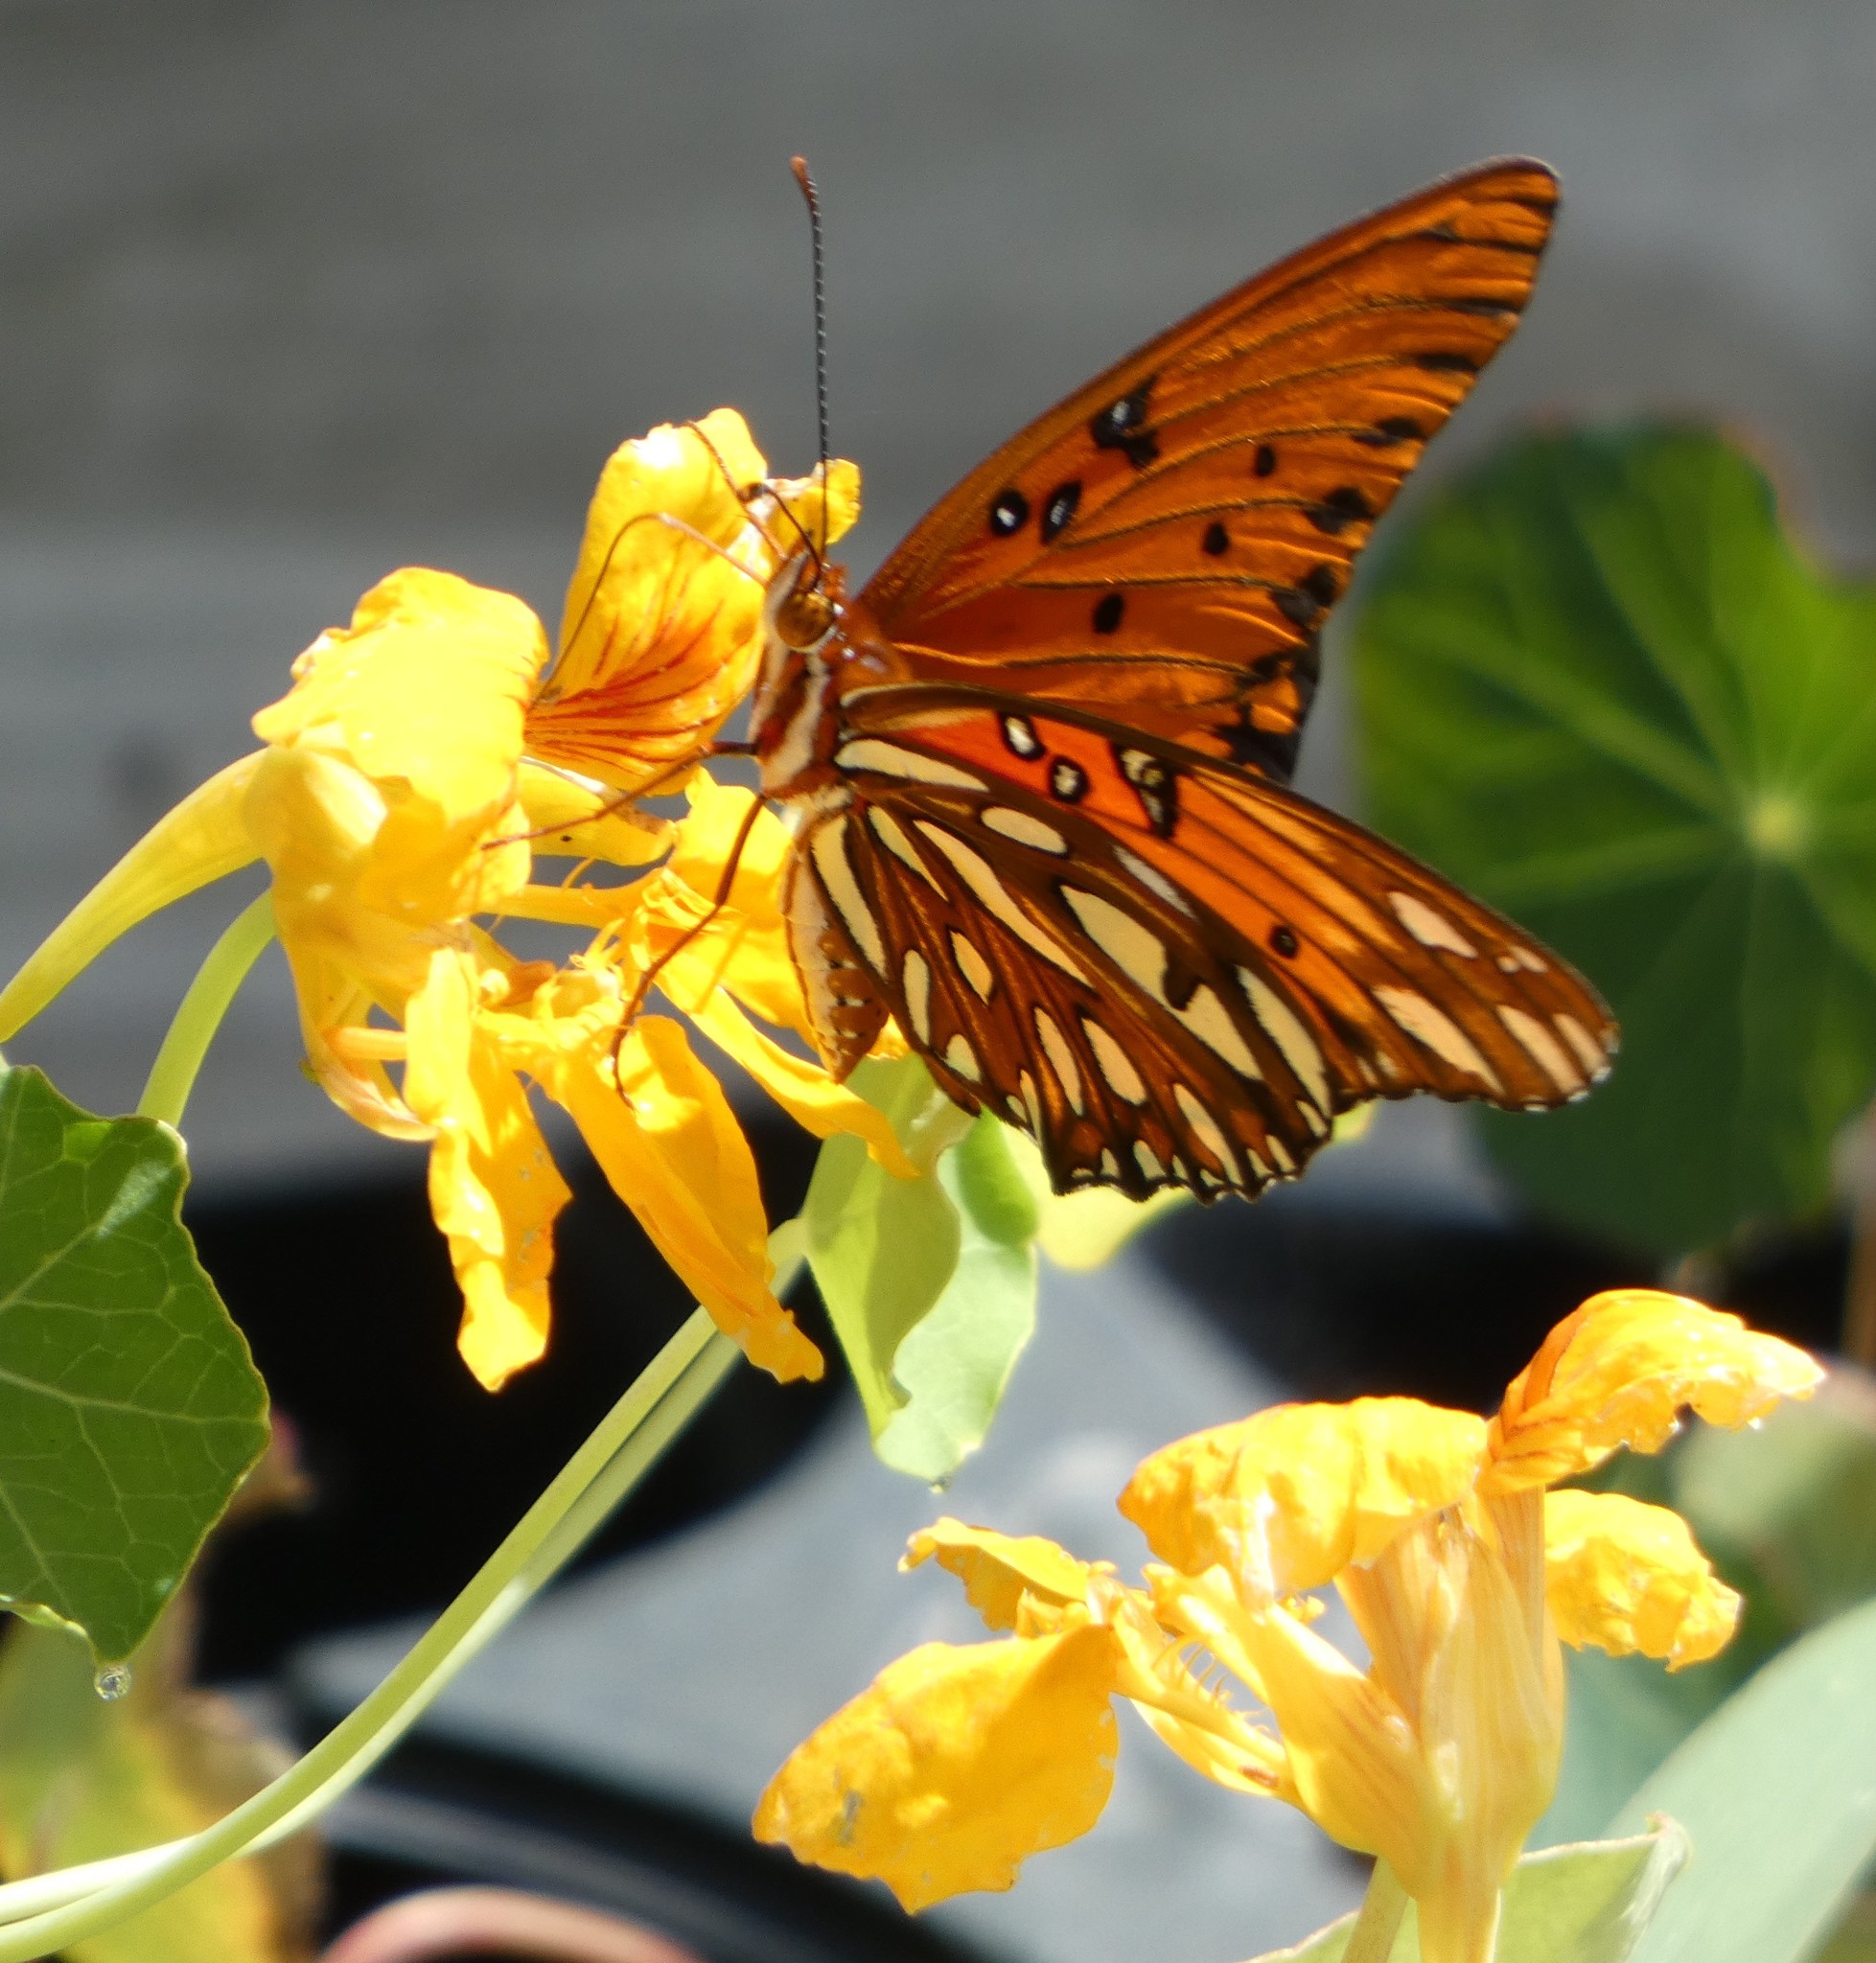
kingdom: Animalia
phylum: Arthropoda
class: Insecta
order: Lepidoptera
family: Nymphalidae
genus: Dione
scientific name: Dione vanillae
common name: Gulf fritillary
